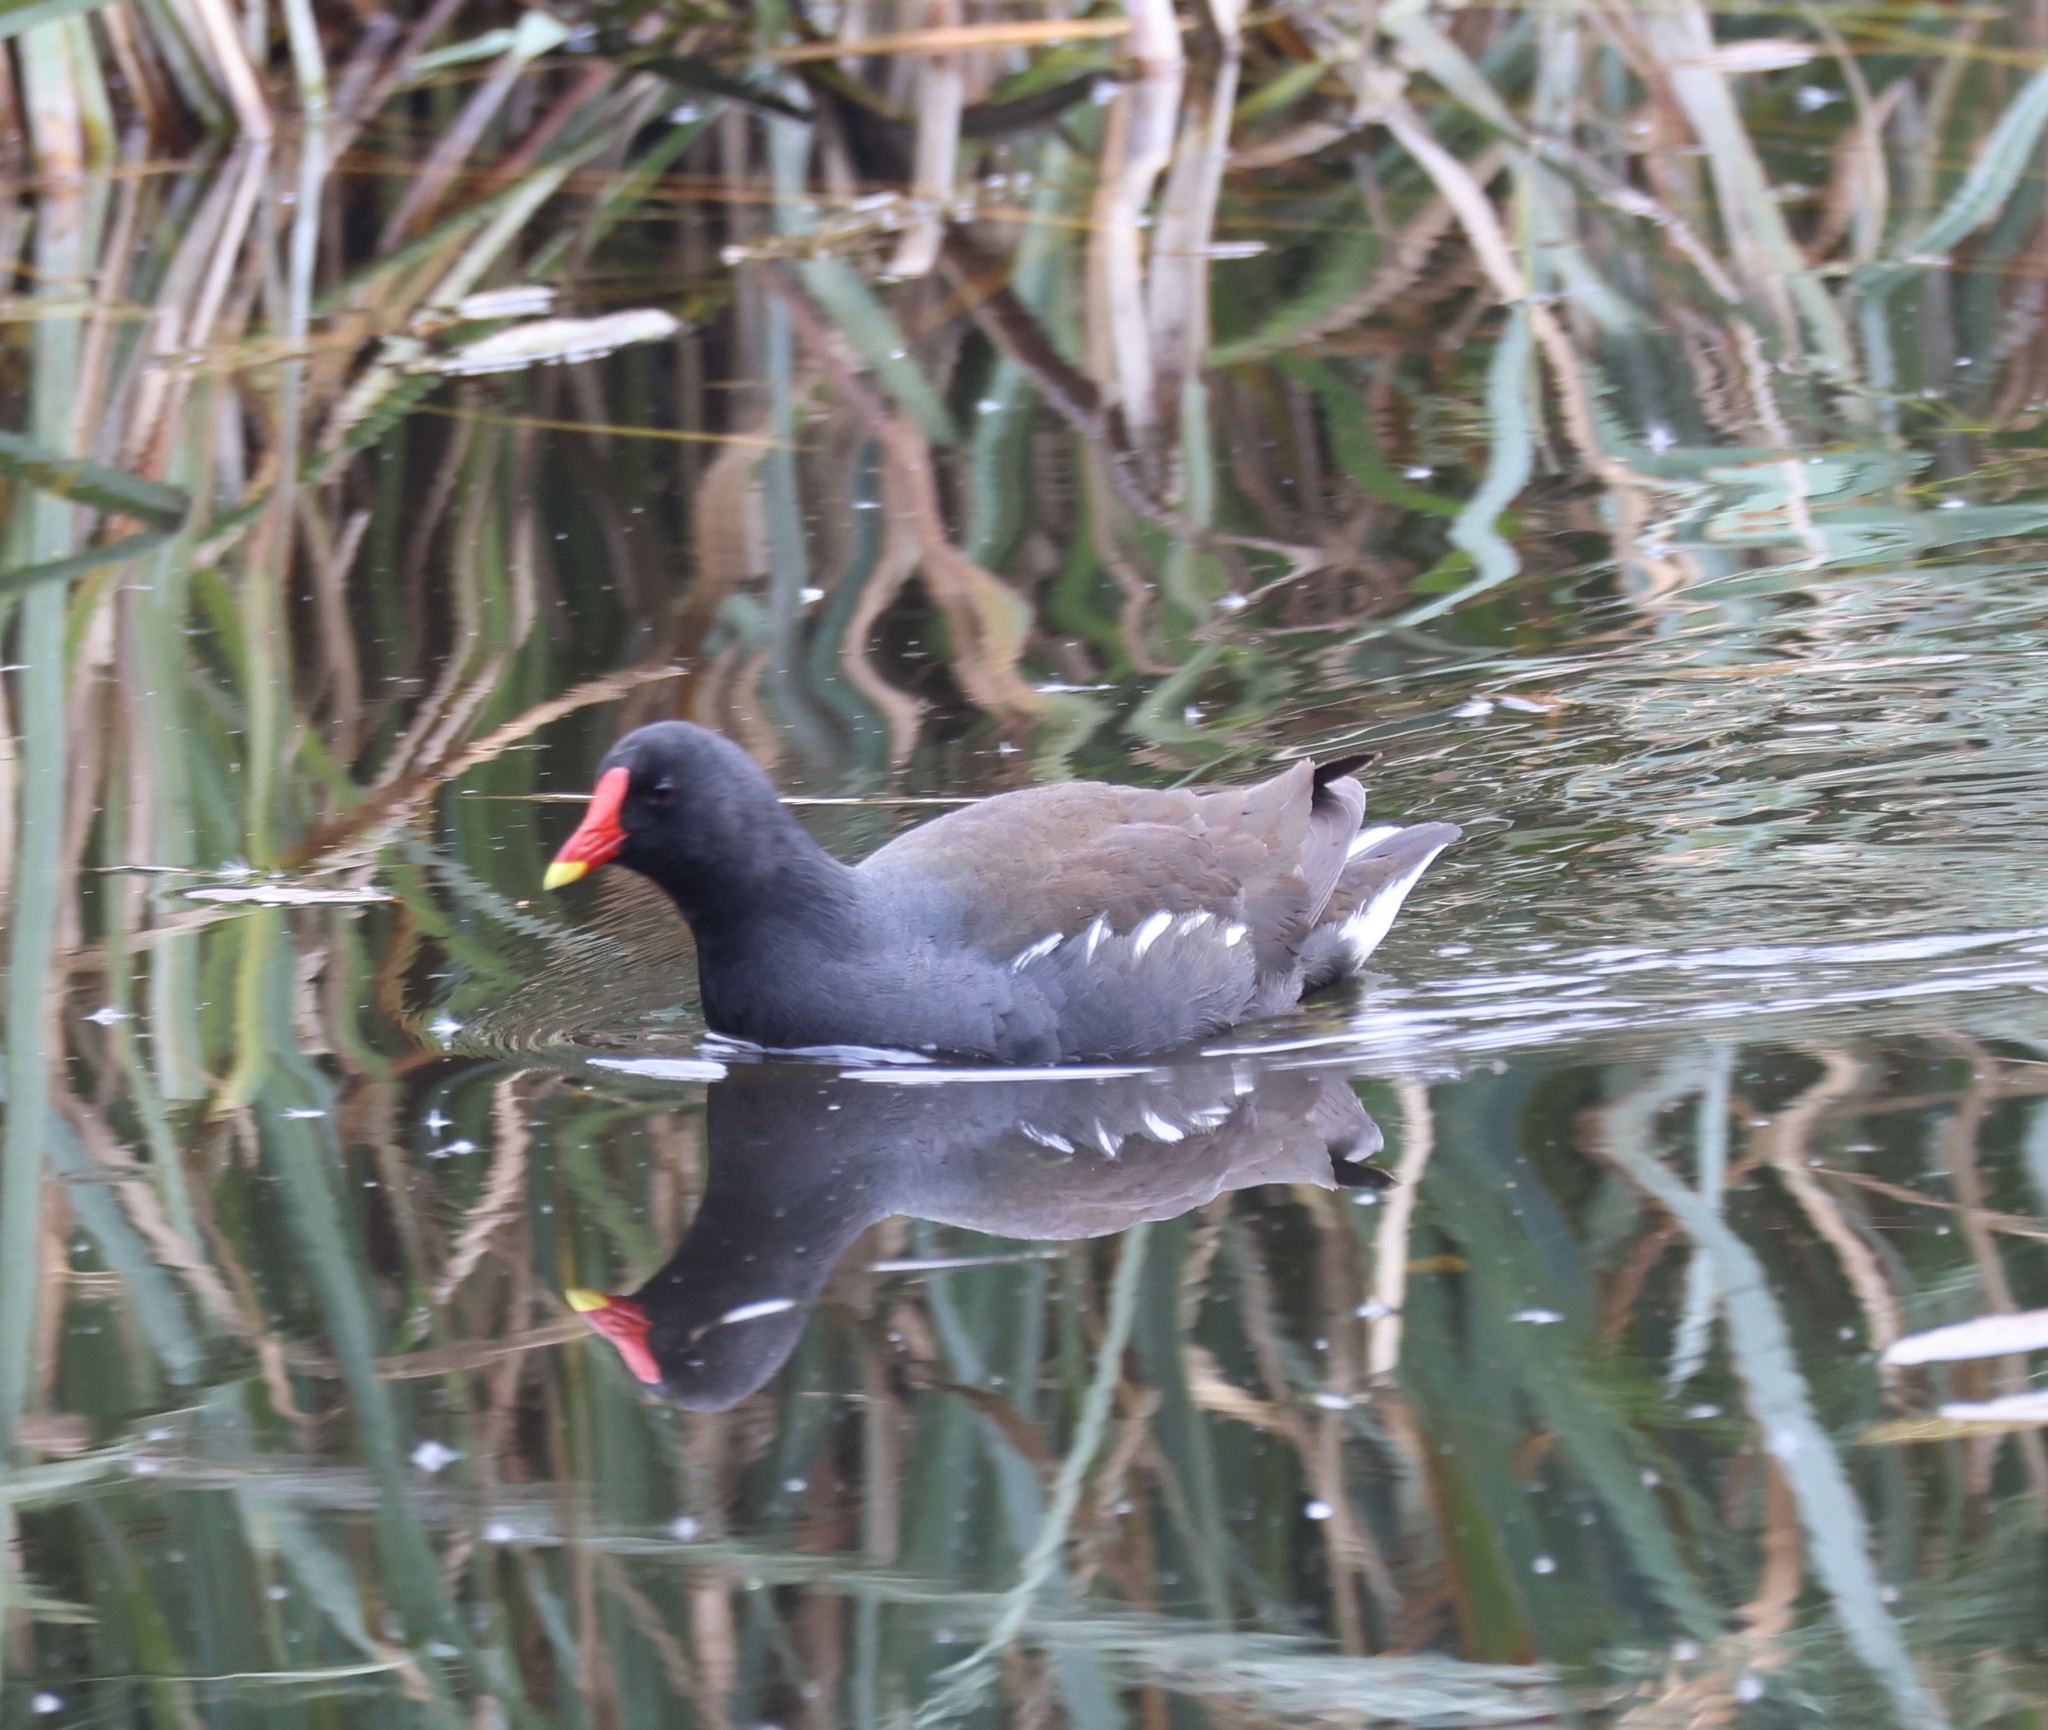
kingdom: Animalia
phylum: Chordata
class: Aves
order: Gruiformes
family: Rallidae
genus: Gallinula
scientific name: Gallinula chloropus
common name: Common moorhen
